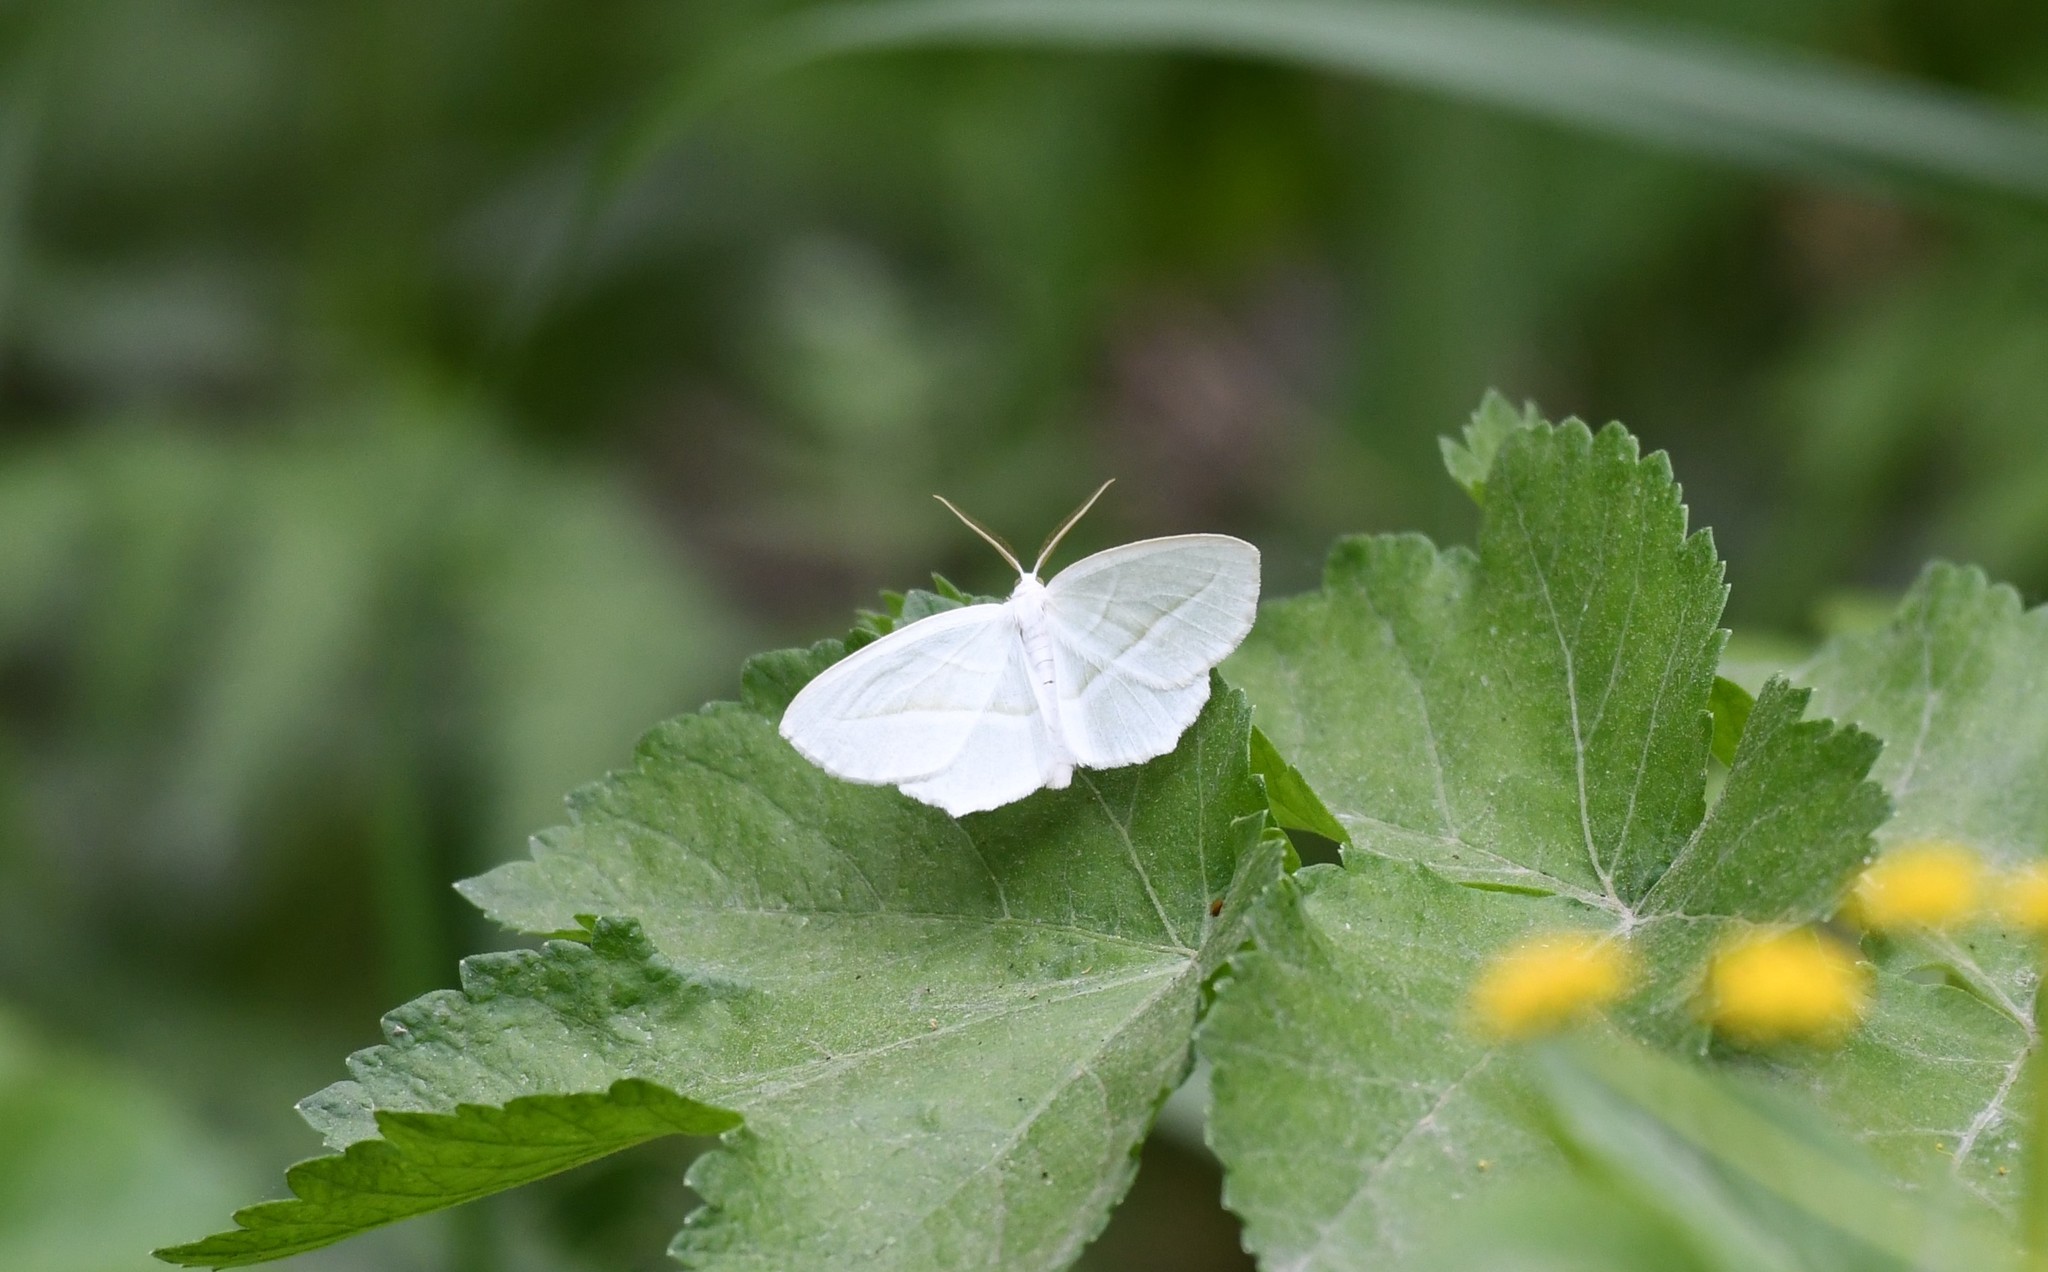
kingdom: Animalia
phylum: Arthropoda
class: Insecta
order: Lepidoptera
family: Geometridae
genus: Campaea
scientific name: Campaea perlata
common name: Fringed looper
